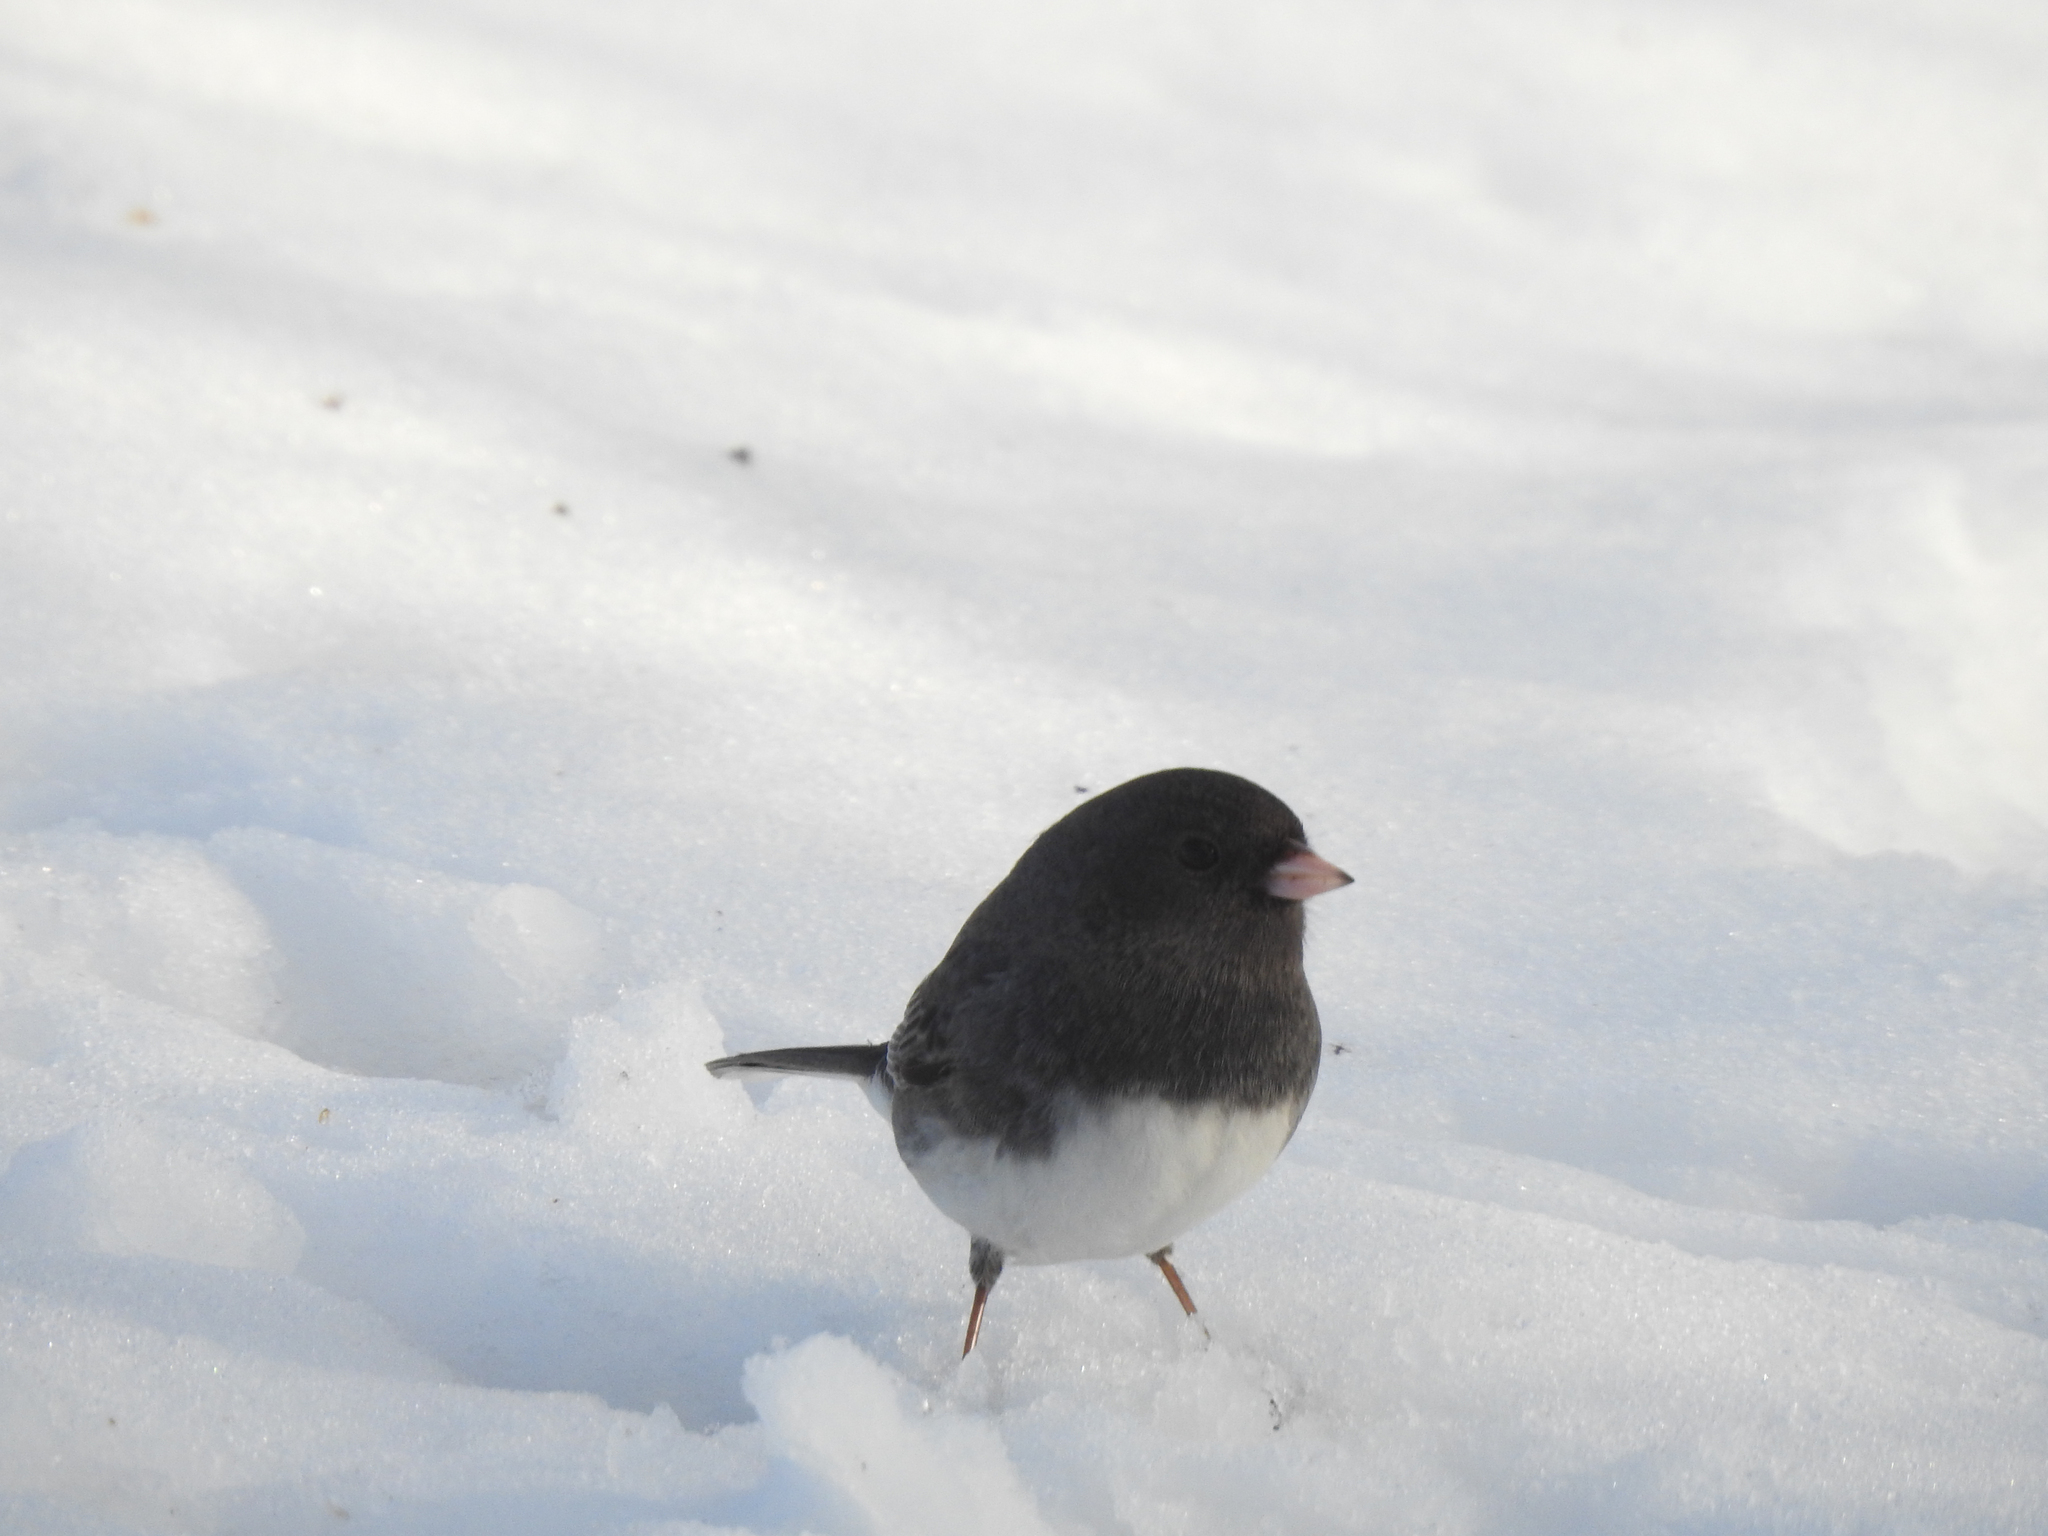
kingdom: Animalia
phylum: Chordata
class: Aves
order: Passeriformes
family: Passerellidae
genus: Junco
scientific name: Junco hyemalis
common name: Dark-eyed junco
